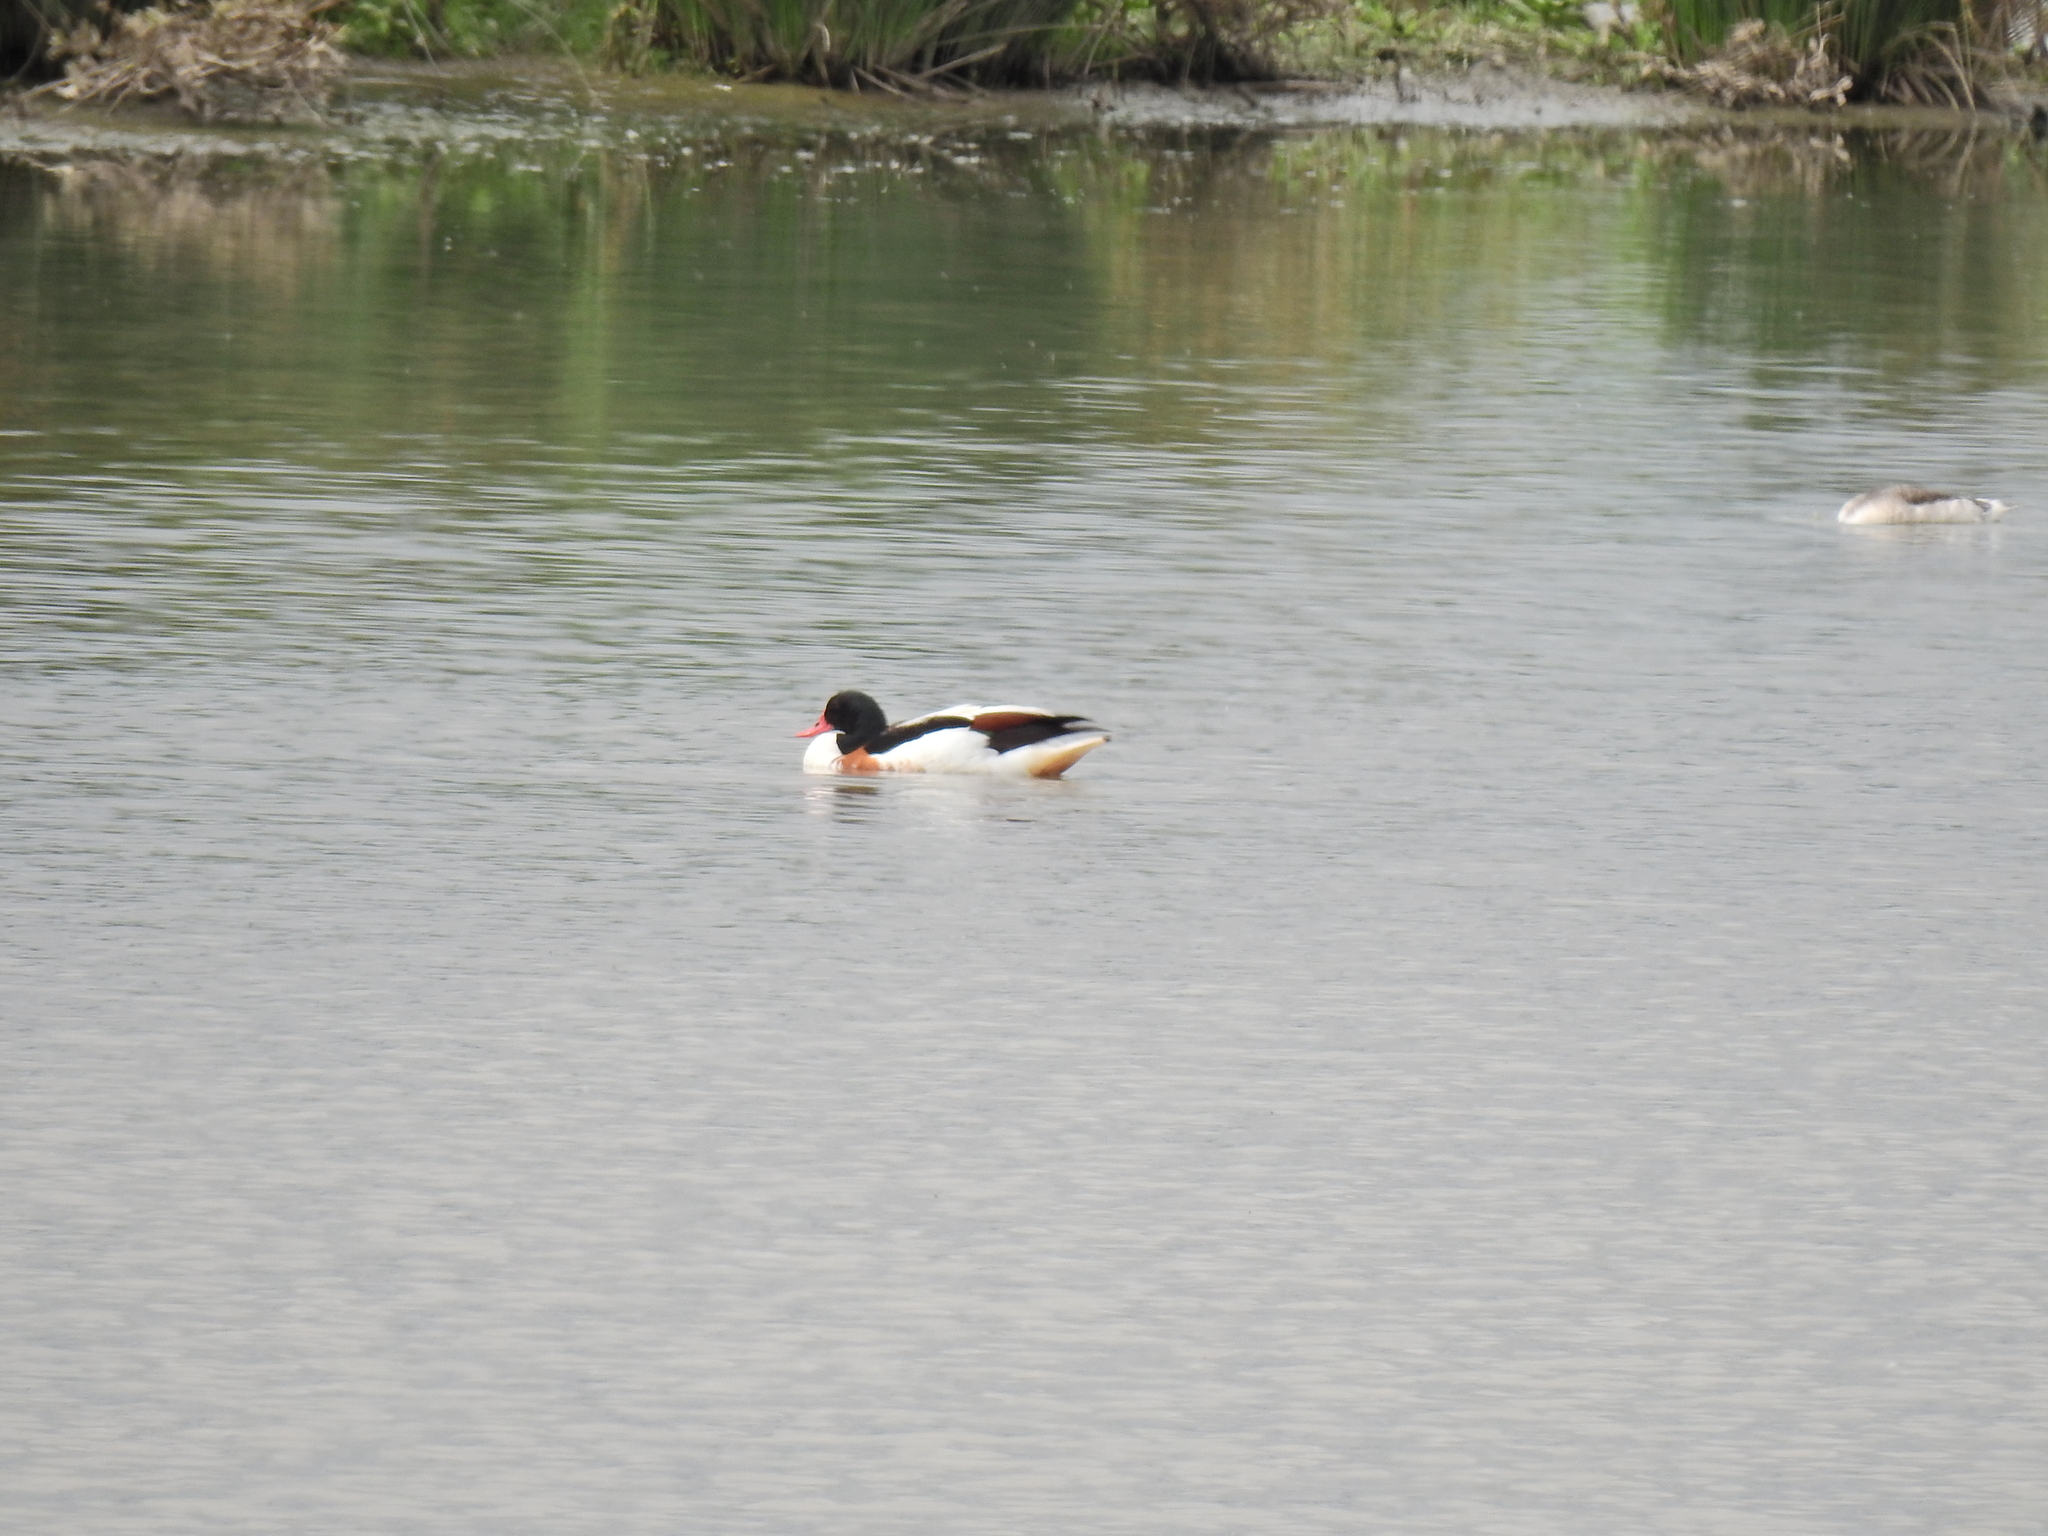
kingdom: Animalia
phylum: Chordata
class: Aves
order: Anseriformes
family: Anatidae
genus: Tadorna
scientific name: Tadorna tadorna
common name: Common shelduck
